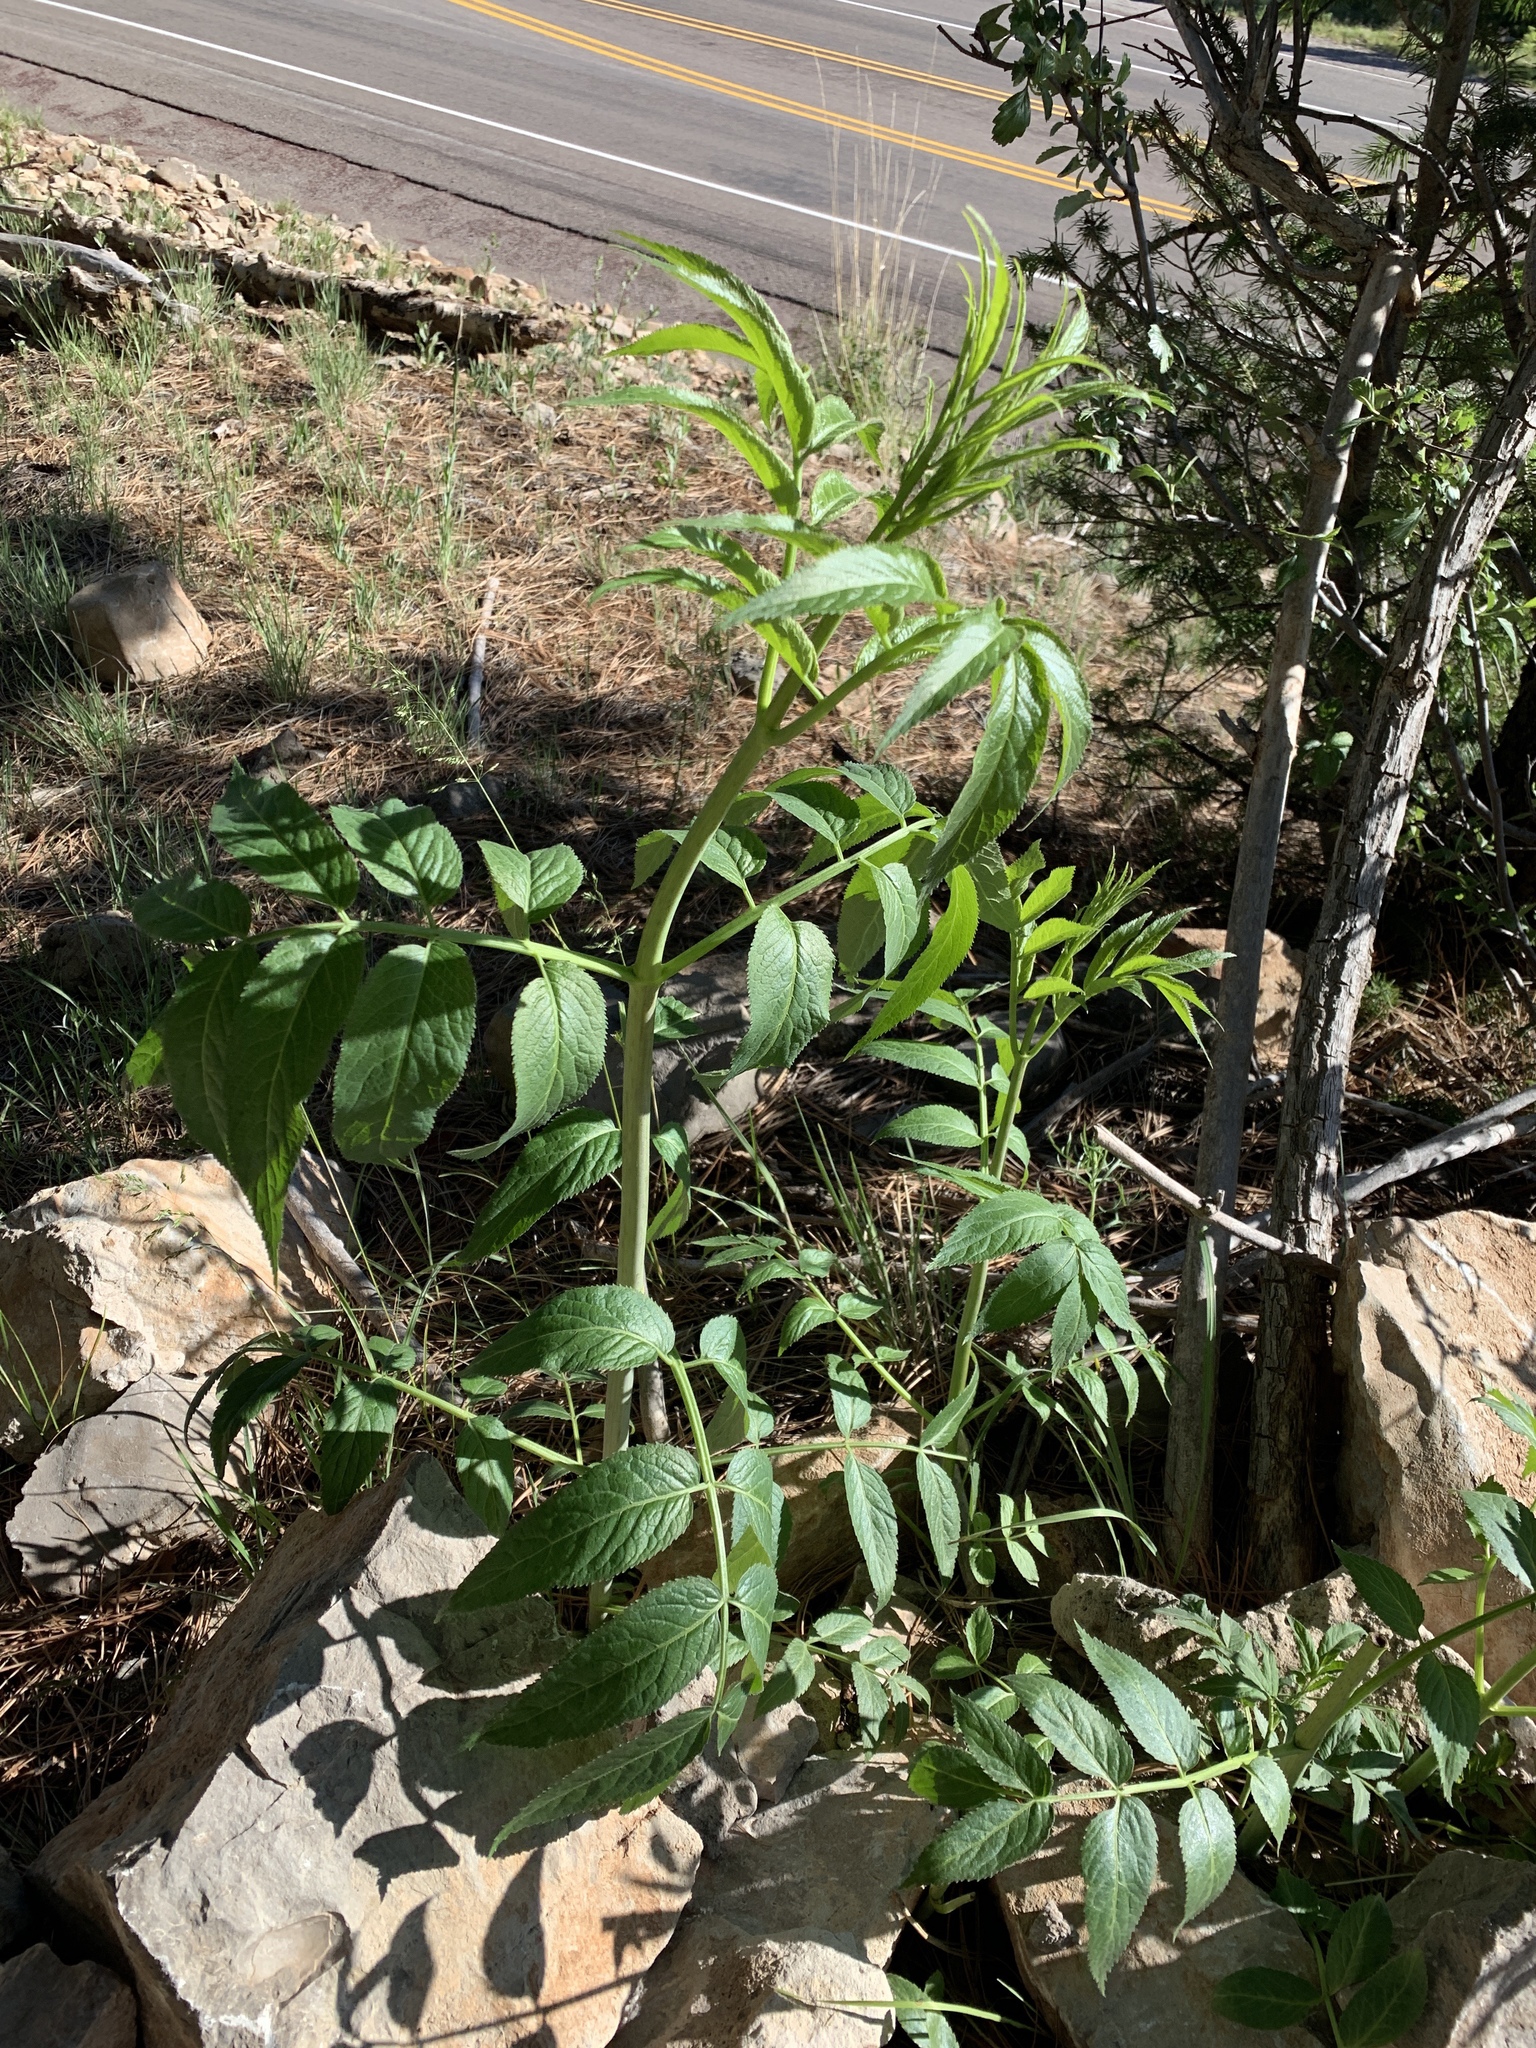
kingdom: Plantae
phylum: Tracheophyta
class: Magnoliopsida
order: Dipsacales
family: Viburnaceae
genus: Sambucus
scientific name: Sambucus cerulea
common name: Blue elder
